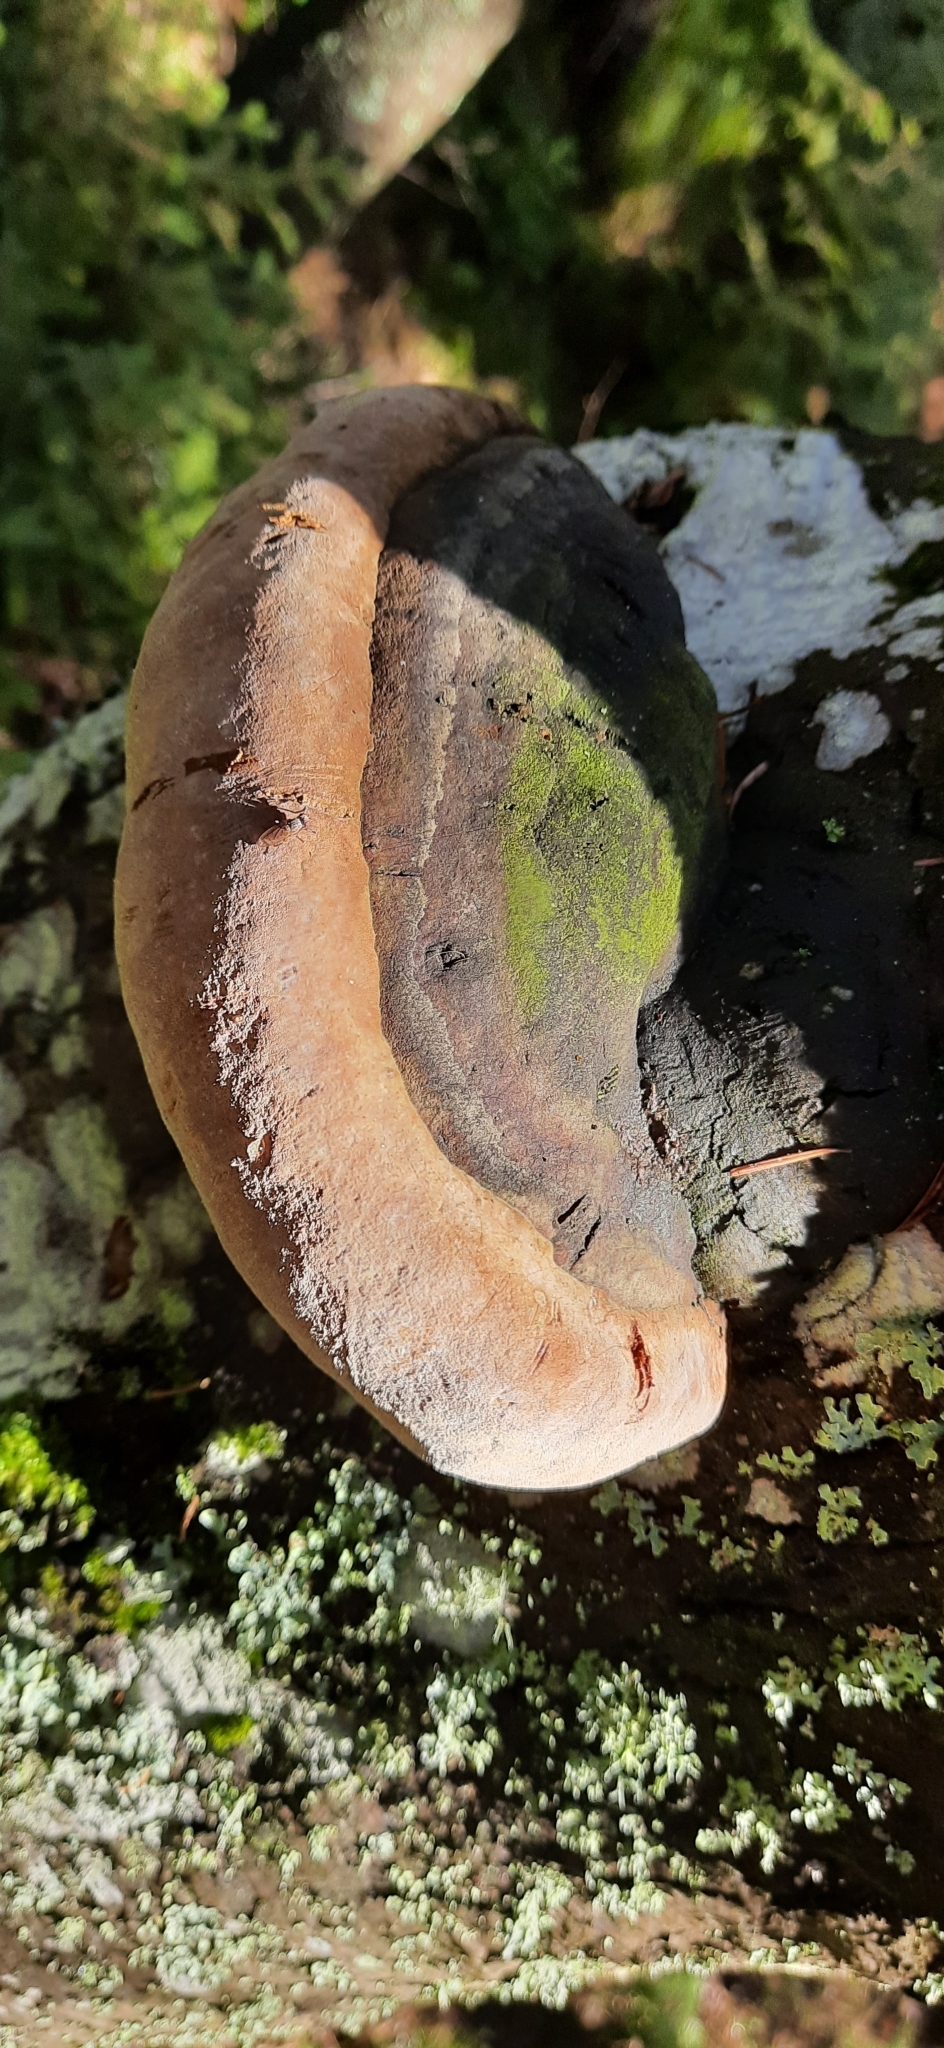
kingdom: Fungi
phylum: Basidiomycota
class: Agaricomycetes
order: Hymenochaetales
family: Hymenochaetaceae
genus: Phellinus
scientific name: Phellinus hartigii
